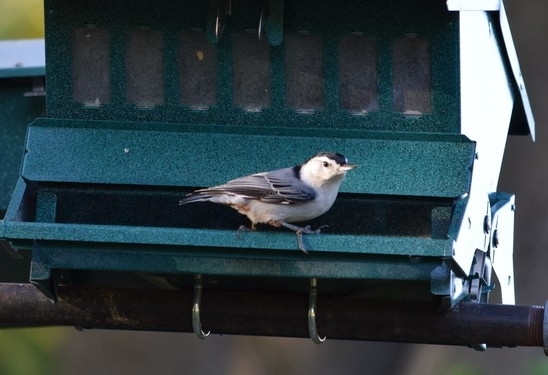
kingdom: Animalia
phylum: Chordata
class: Aves
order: Passeriformes
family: Sittidae
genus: Sitta
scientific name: Sitta carolinensis
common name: White-breasted nuthatch
